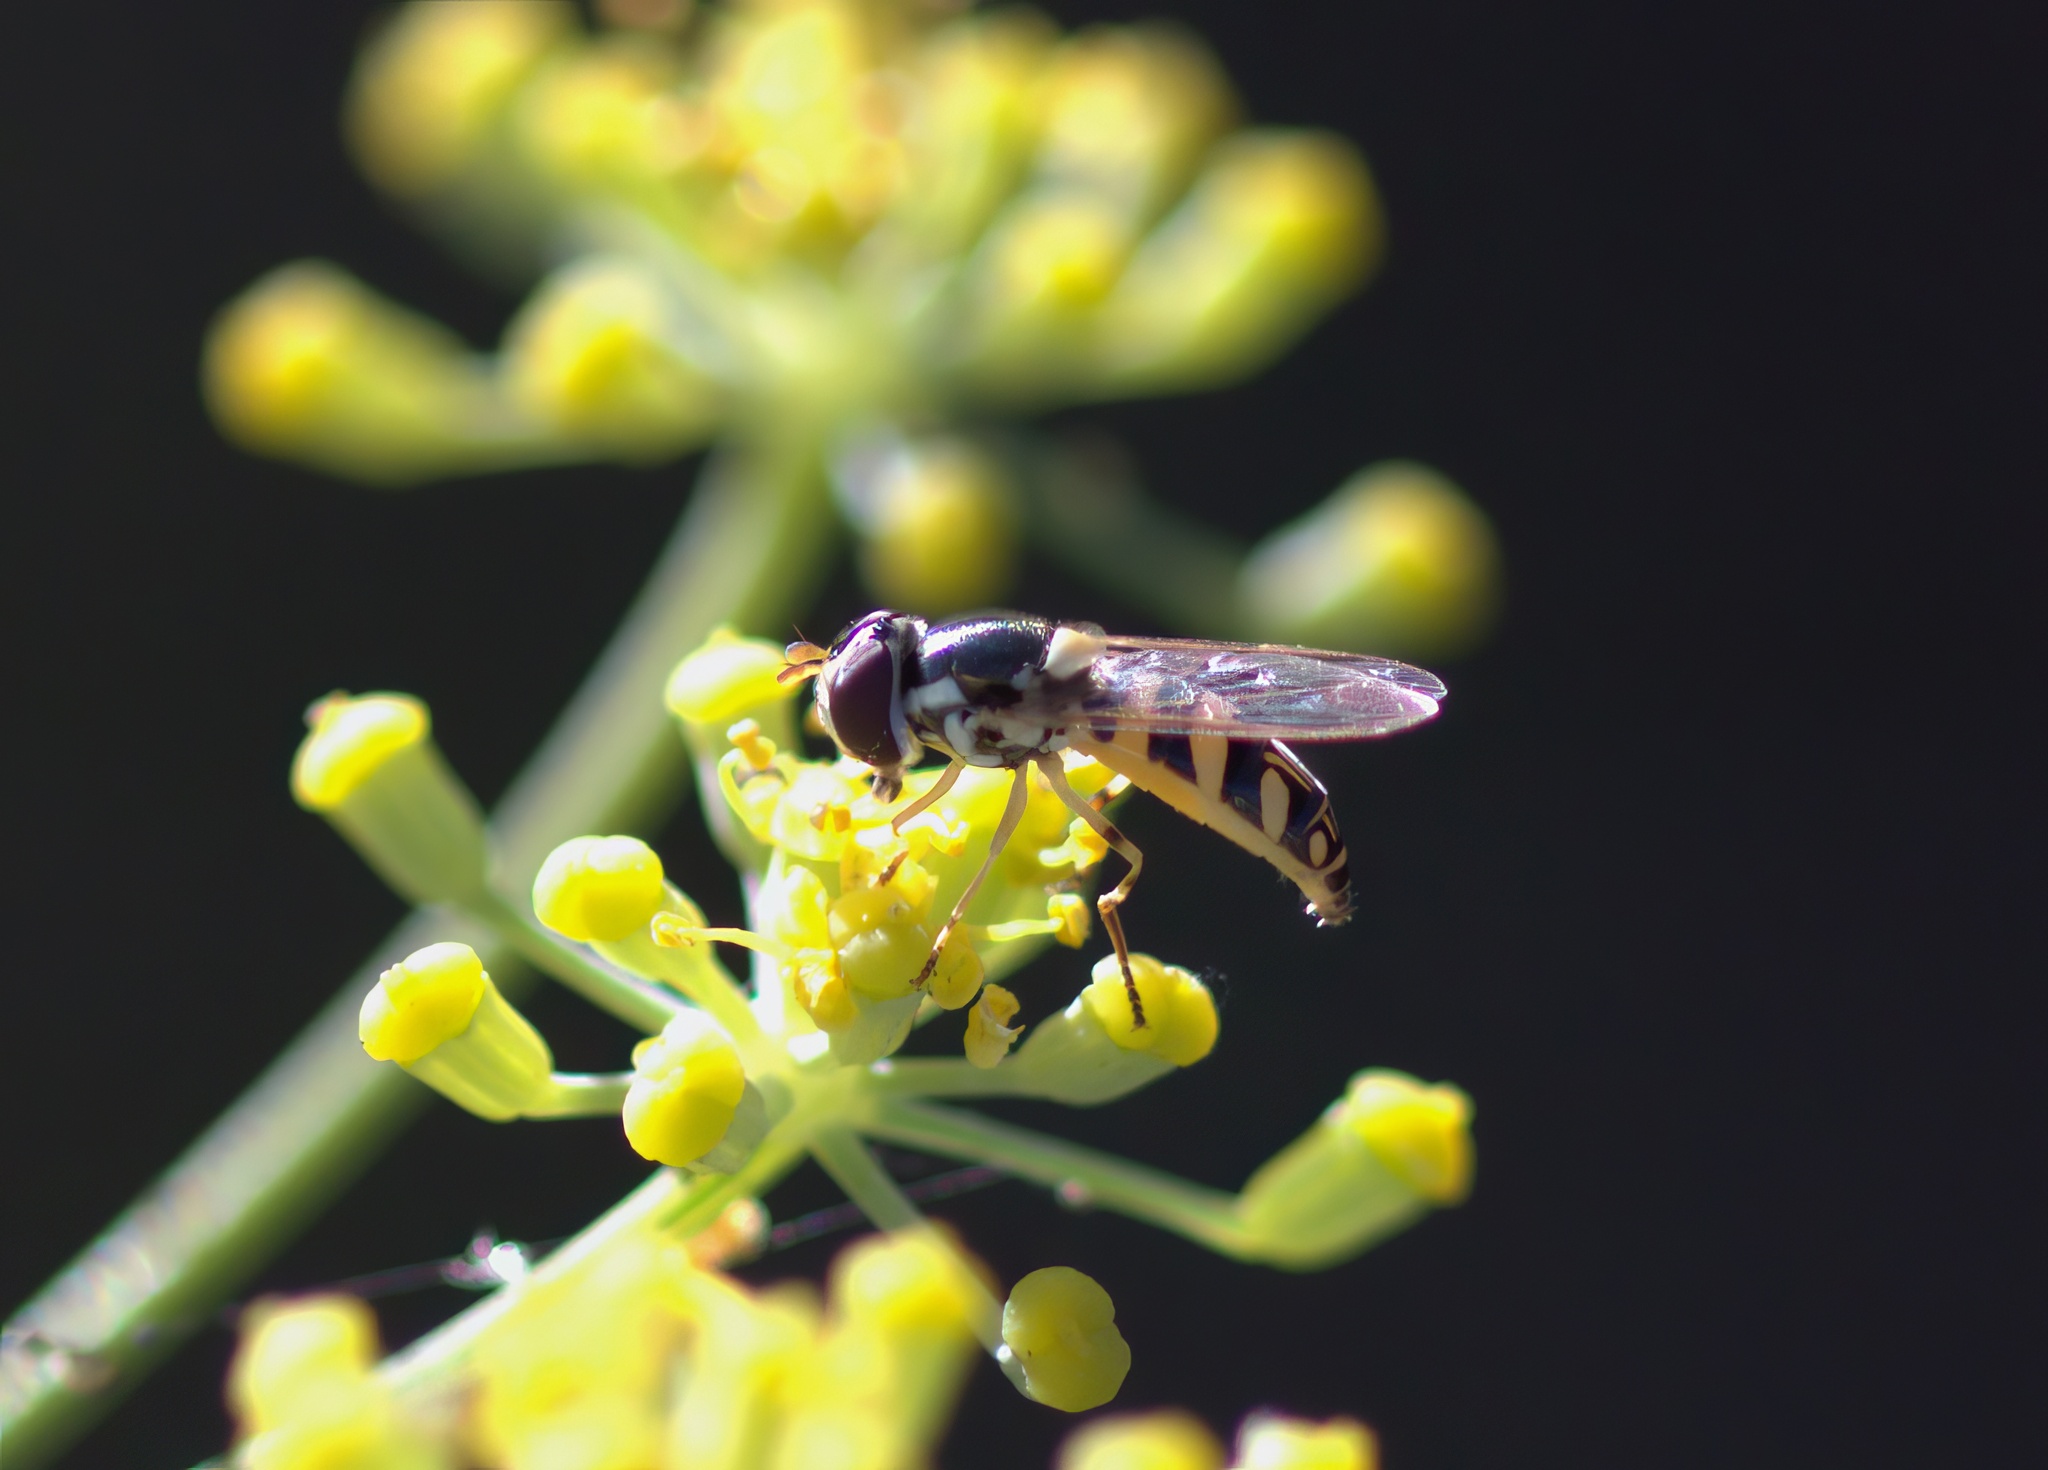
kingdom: Animalia
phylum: Arthropoda
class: Insecta
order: Diptera
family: Syrphidae
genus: Allograpta
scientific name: Allograpta exotica
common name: Syrphid fly
